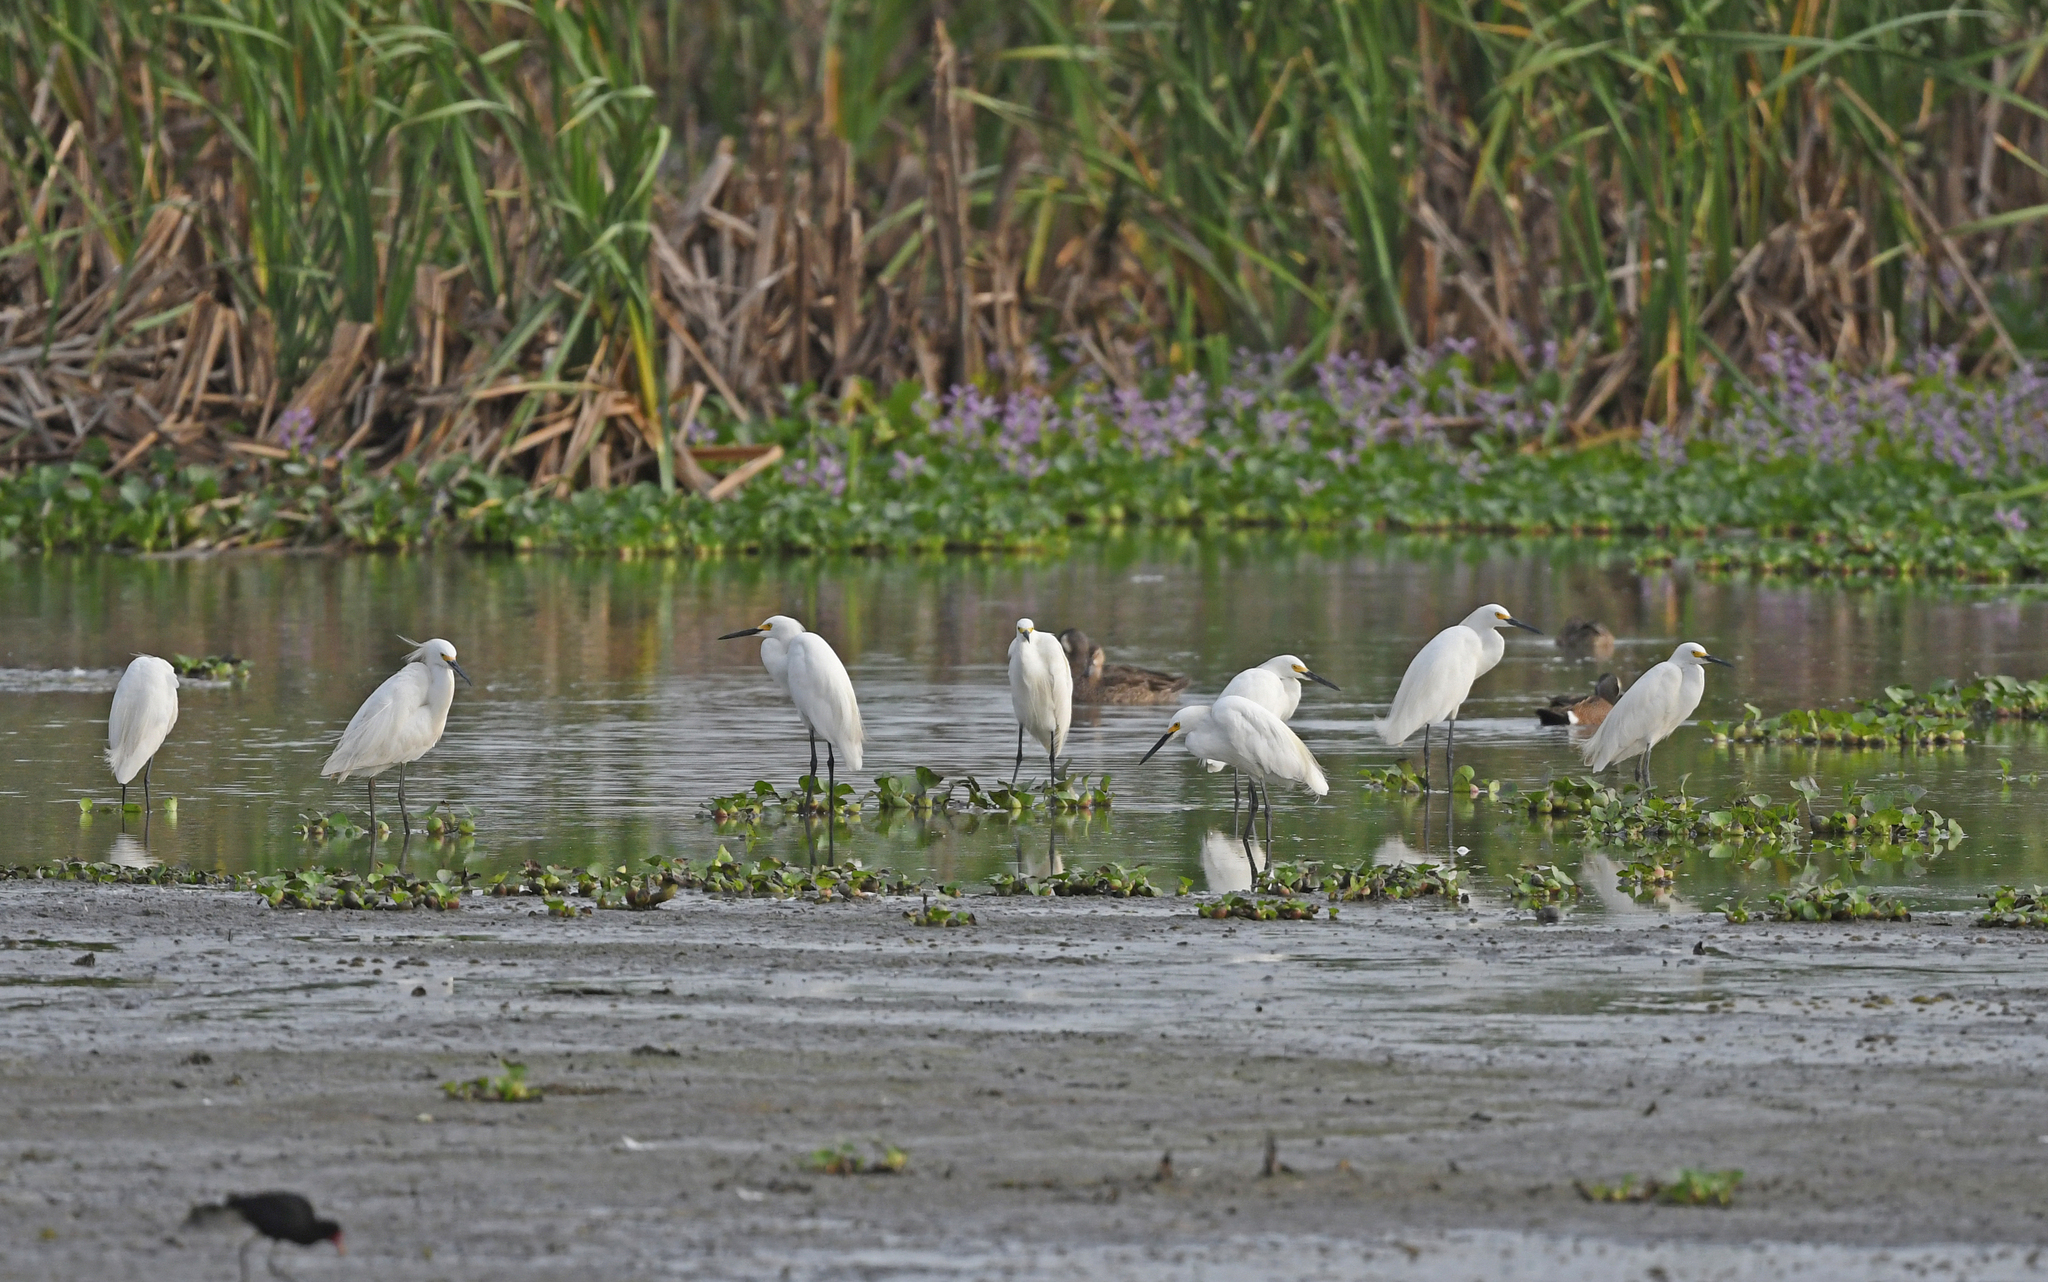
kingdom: Animalia
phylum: Chordata
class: Aves
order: Pelecaniformes
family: Ardeidae
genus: Egretta
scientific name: Egretta thula
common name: Snowy egret
